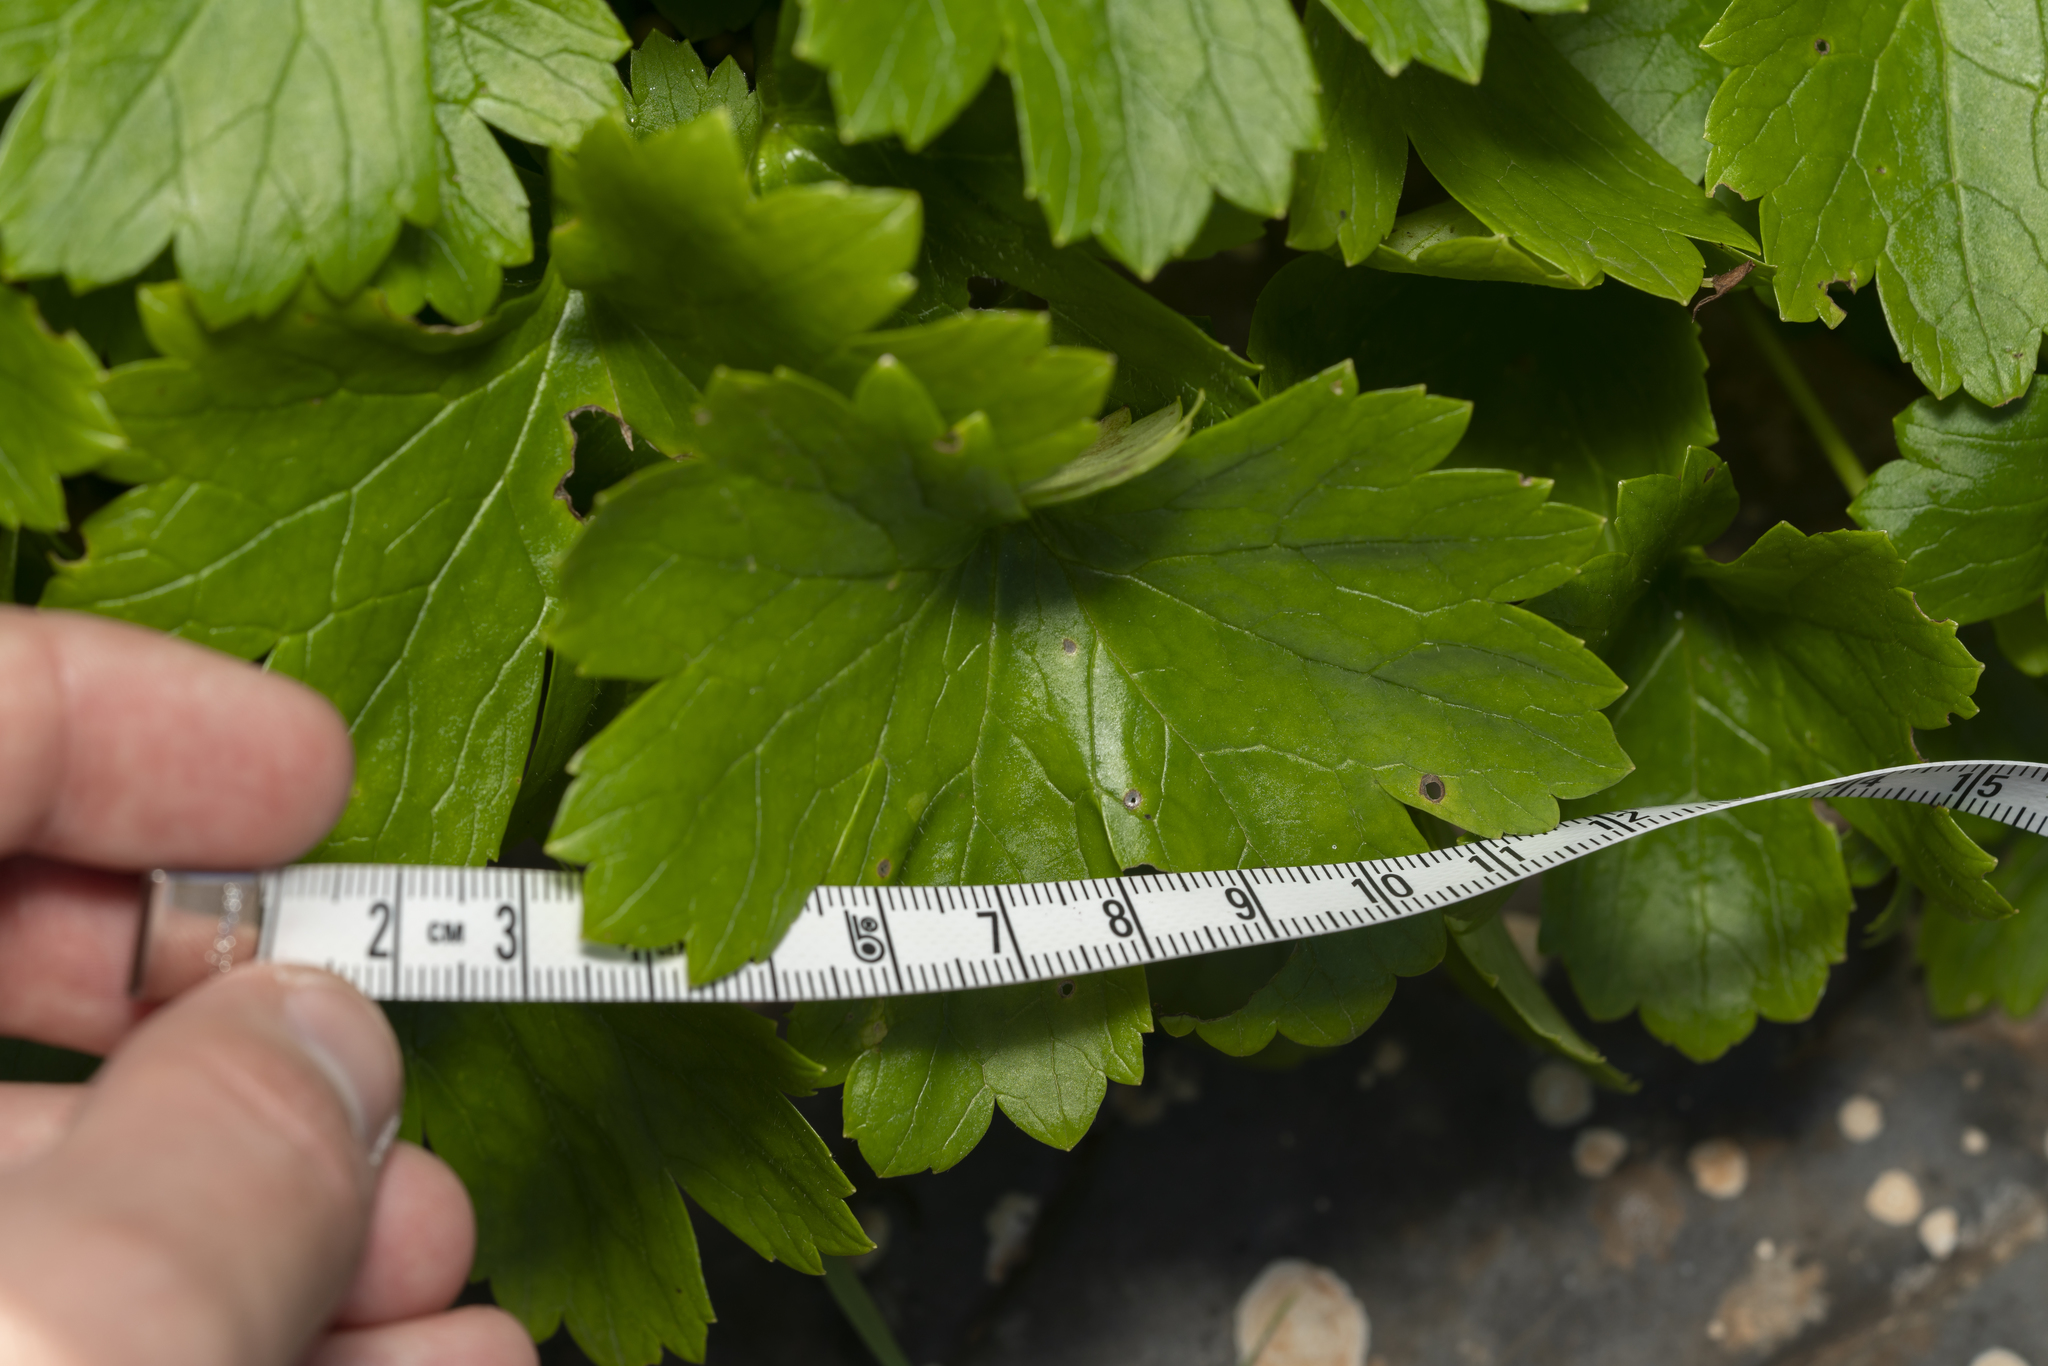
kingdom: Plantae
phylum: Tracheophyta
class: Magnoliopsida
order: Ranunculales
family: Ranunculaceae
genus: Ranunculus
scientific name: Ranunculus creticus
